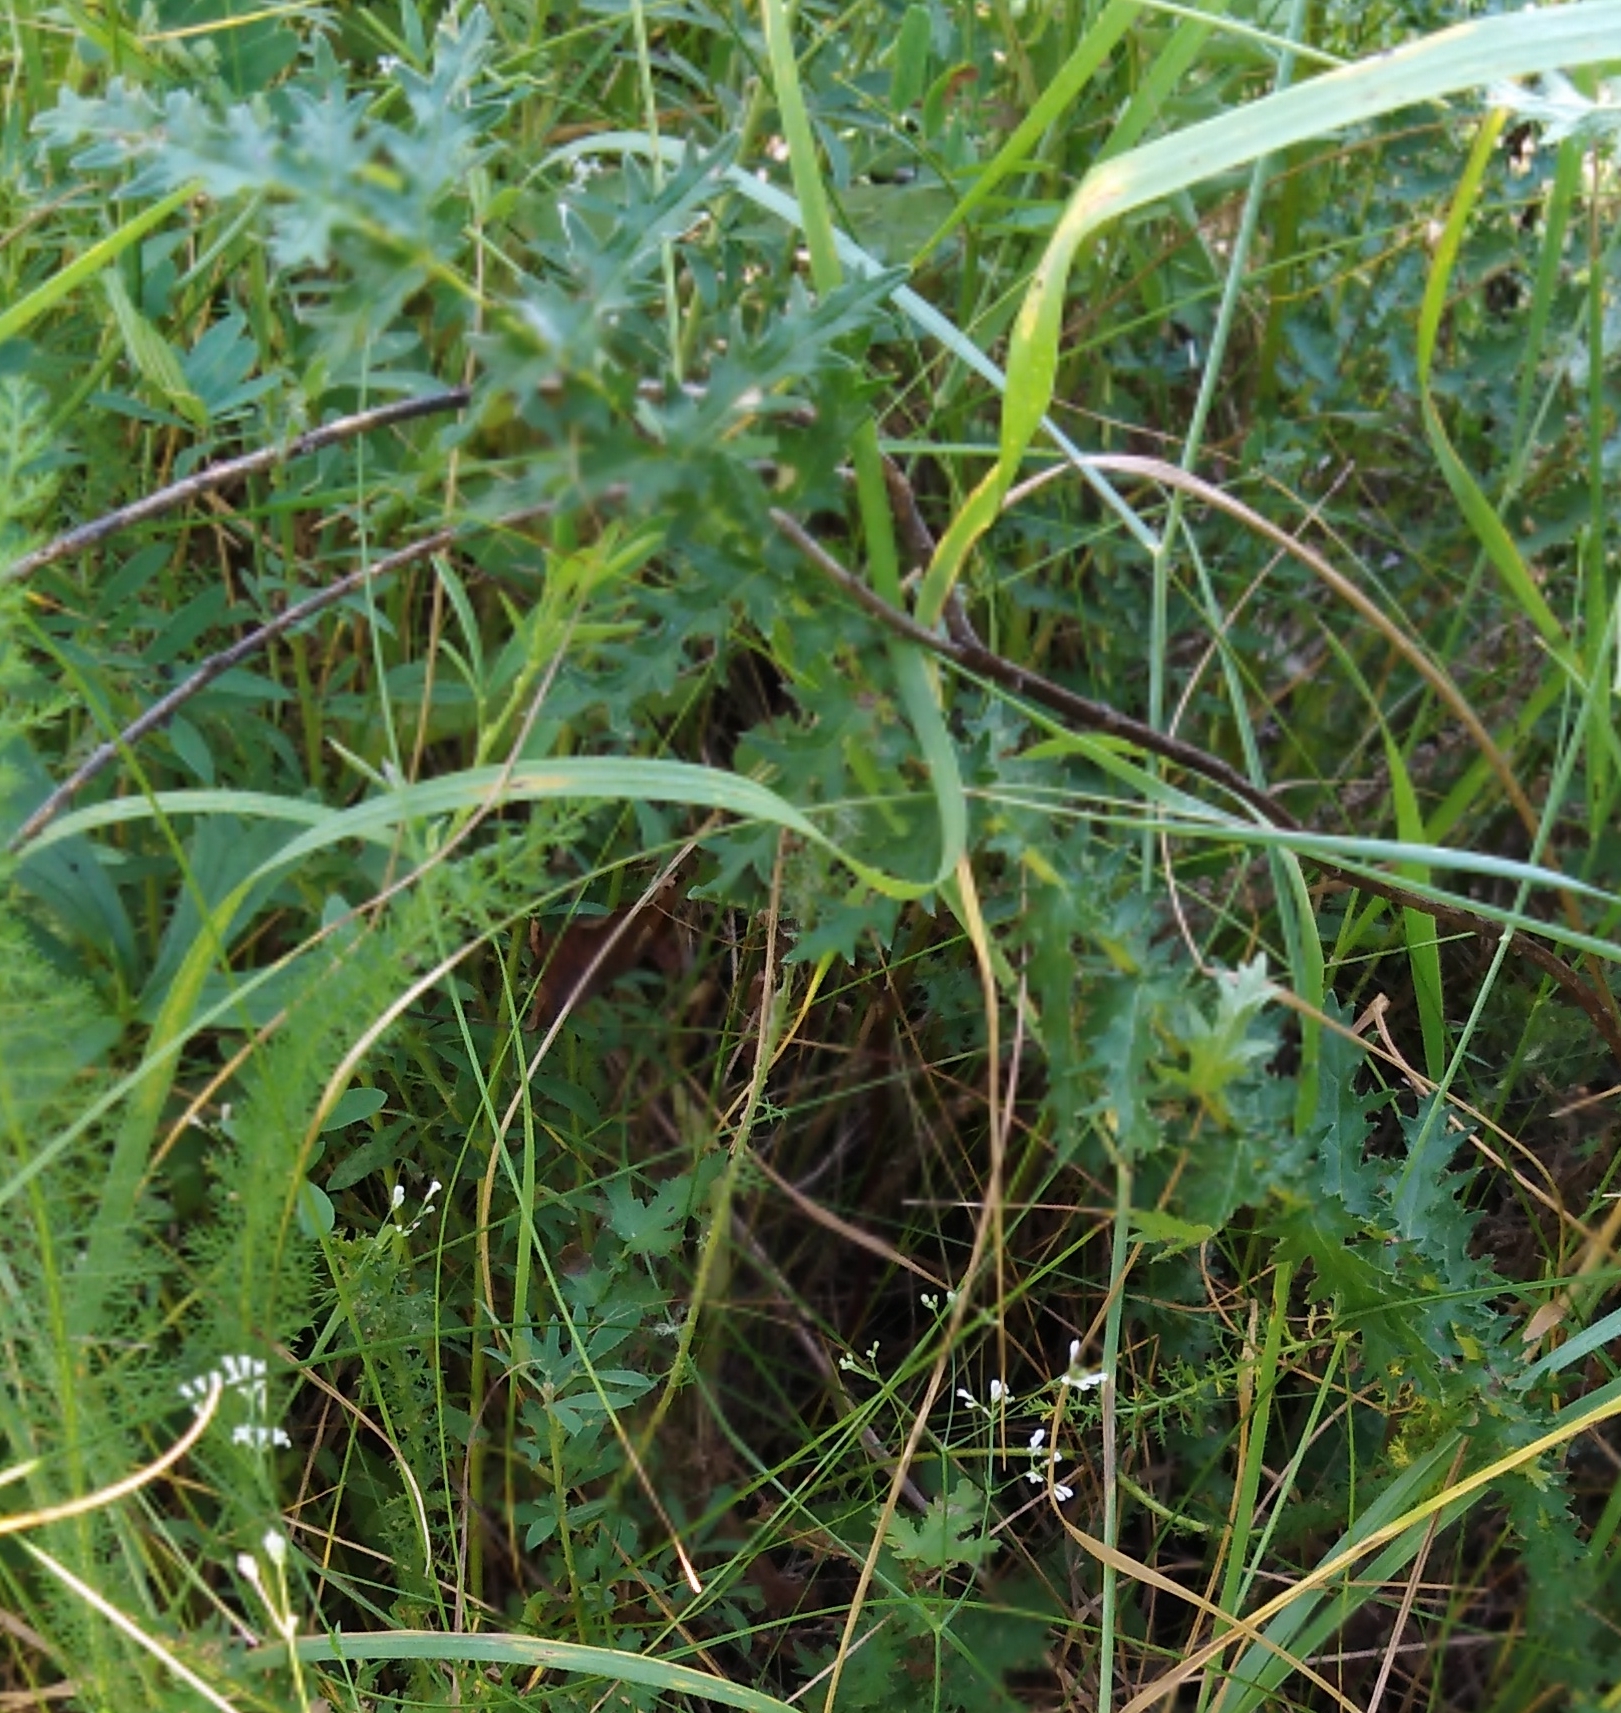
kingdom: Plantae
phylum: Tracheophyta
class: Magnoliopsida
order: Rosales
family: Rosaceae
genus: Filipendula
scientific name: Filipendula vulgaris
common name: Dropwort
